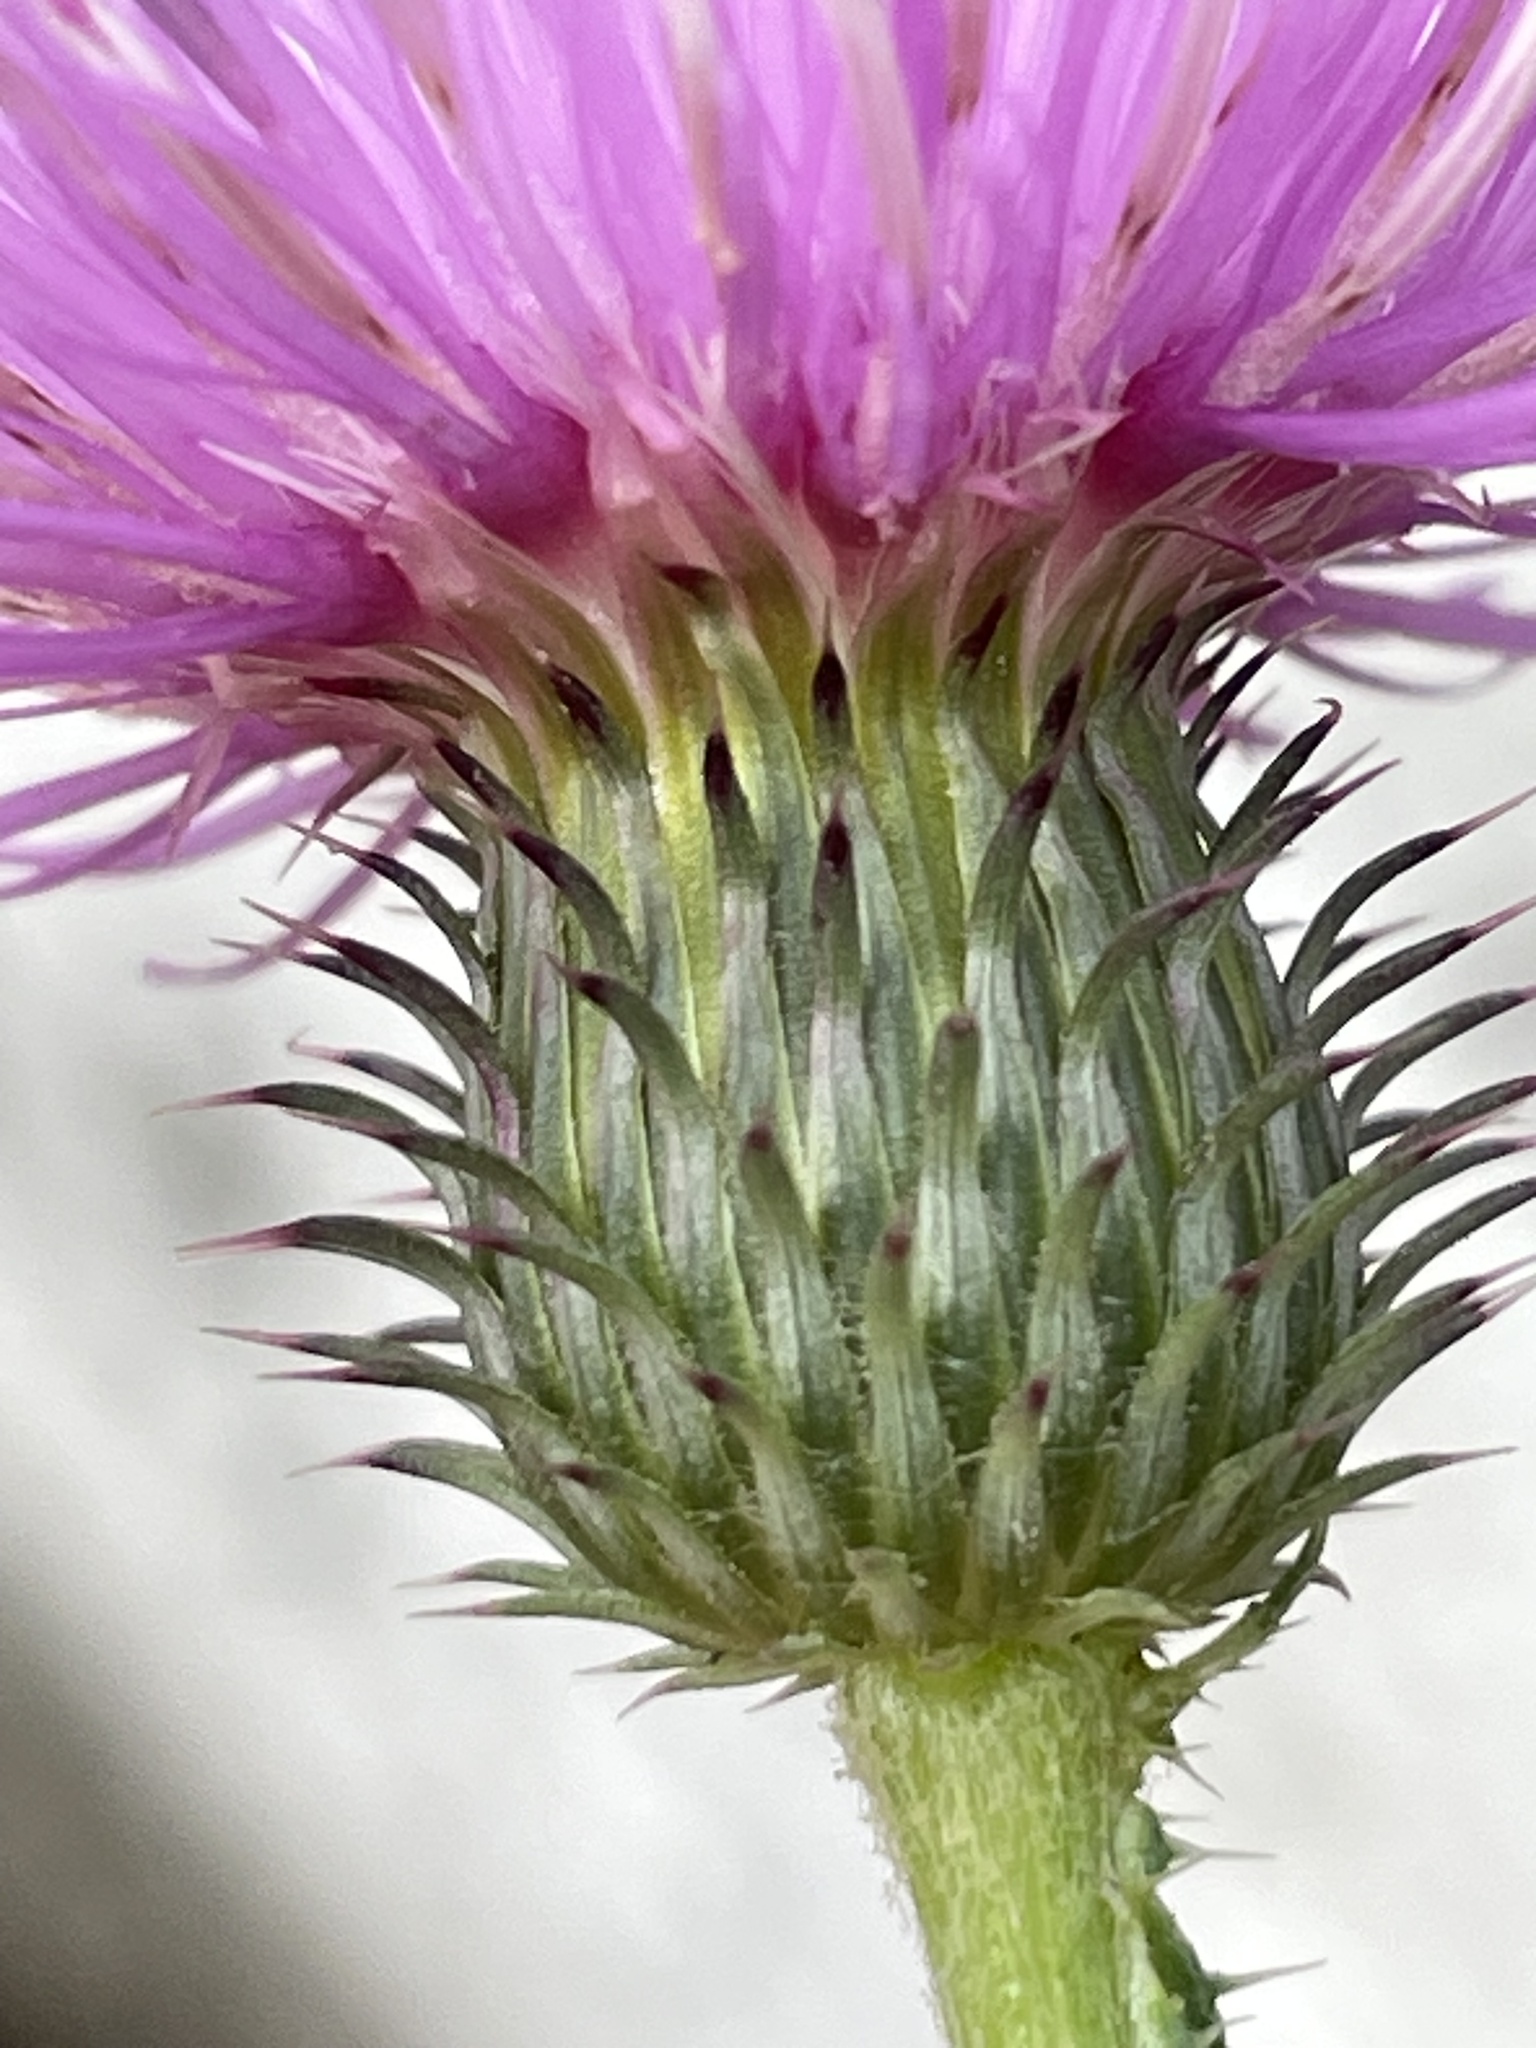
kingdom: Plantae
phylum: Tracheophyta
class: Magnoliopsida
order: Asterales
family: Asteraceae
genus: Carduus
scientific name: Carduus acanthoides
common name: Plumeless thistle
